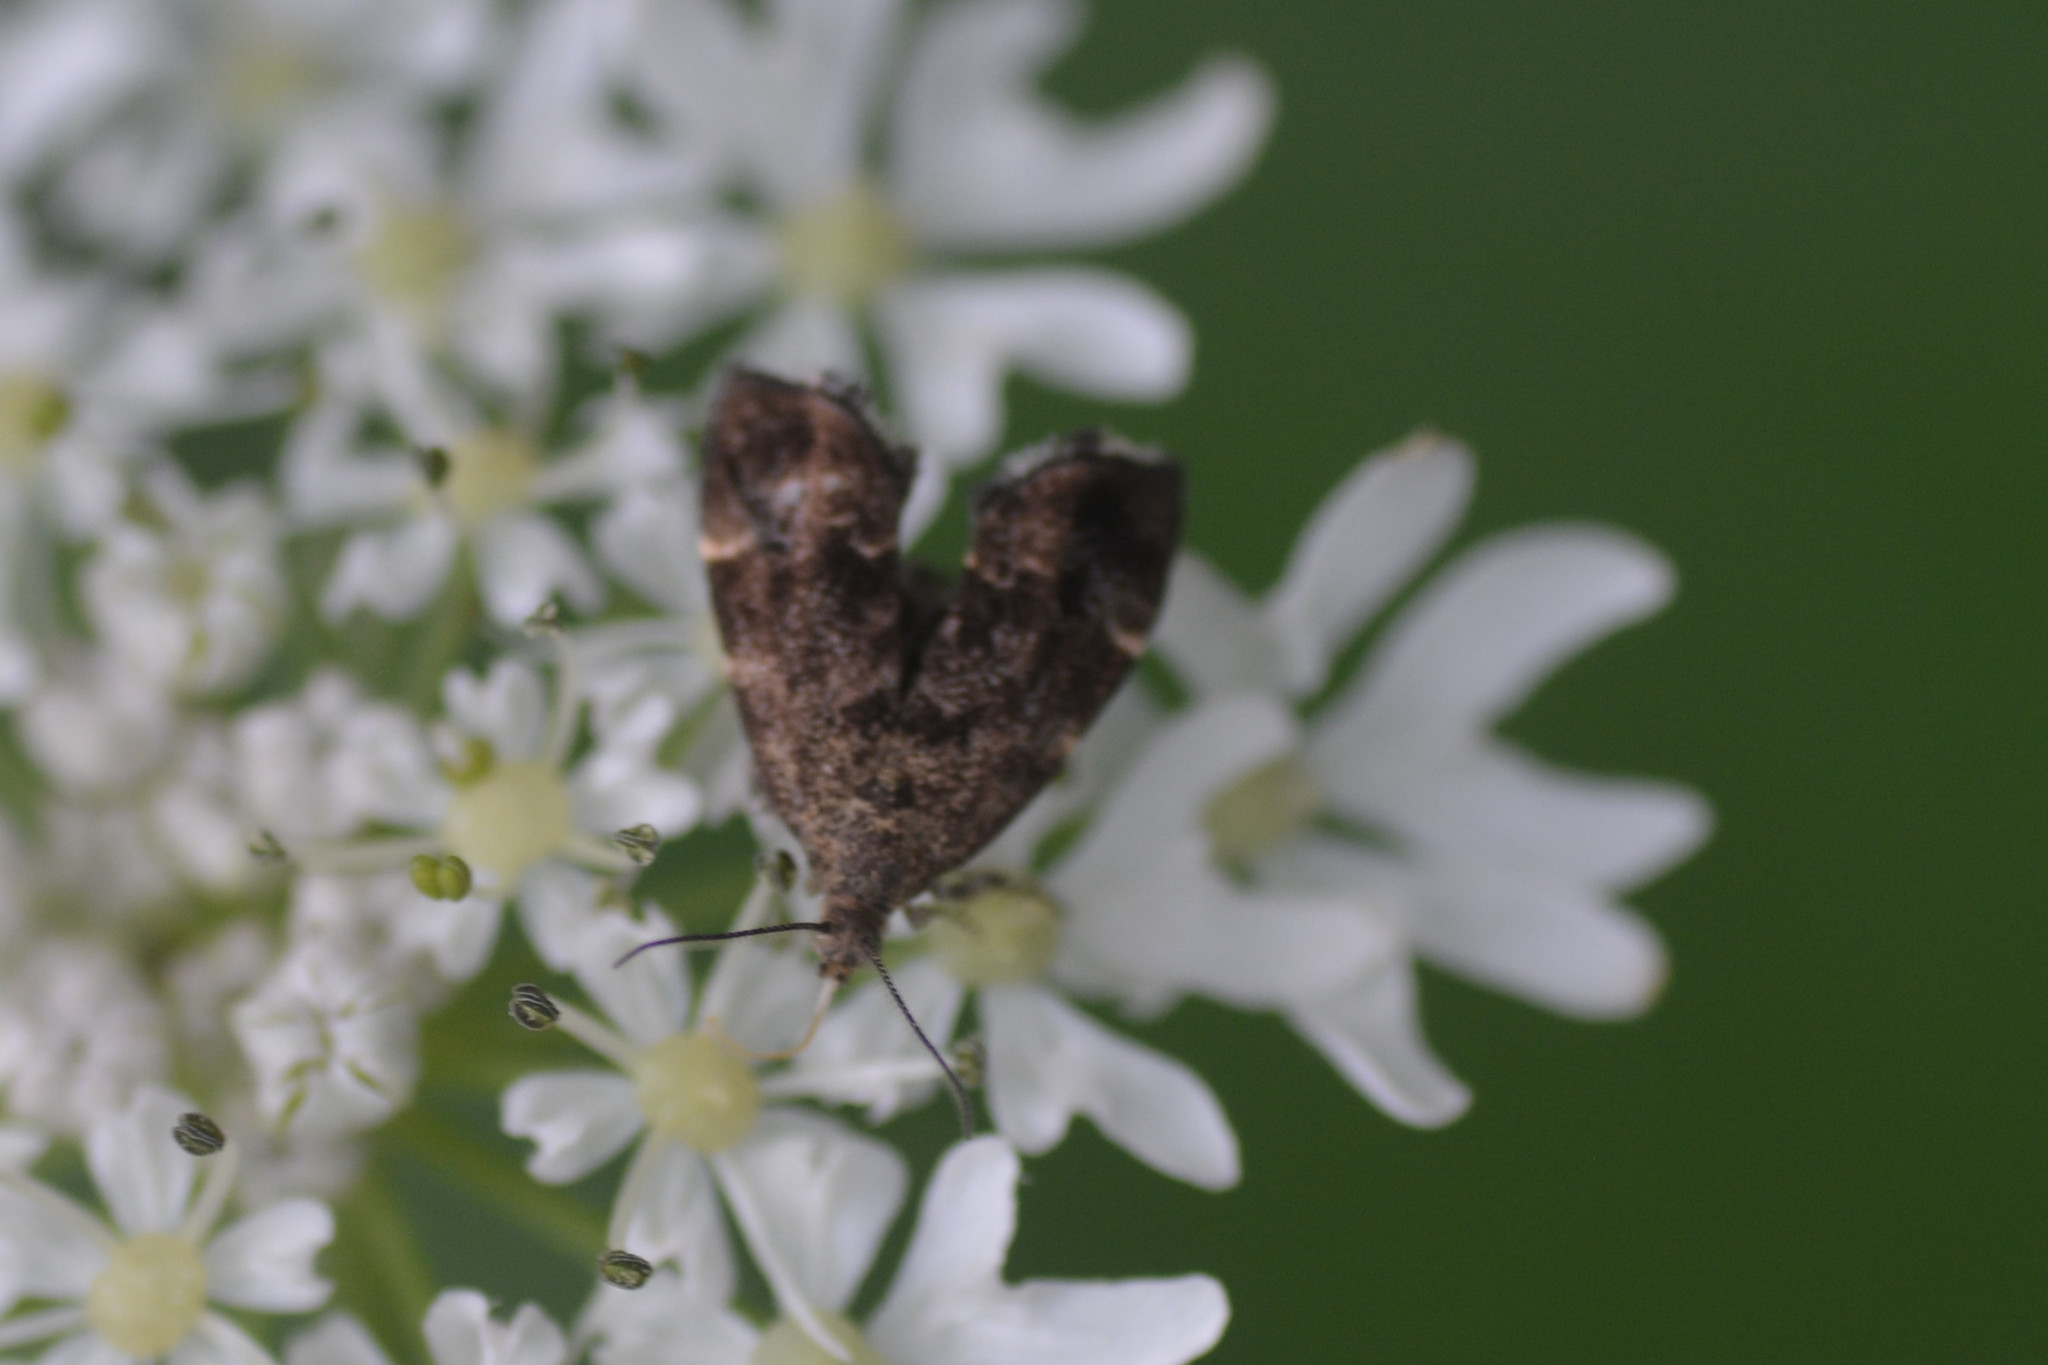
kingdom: Animalia
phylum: Arthropoda
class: Insecta
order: Lepidoptera
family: Choreutidae
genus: Anthophila
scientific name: Anthophila fabriciana
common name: Nettle-tap
